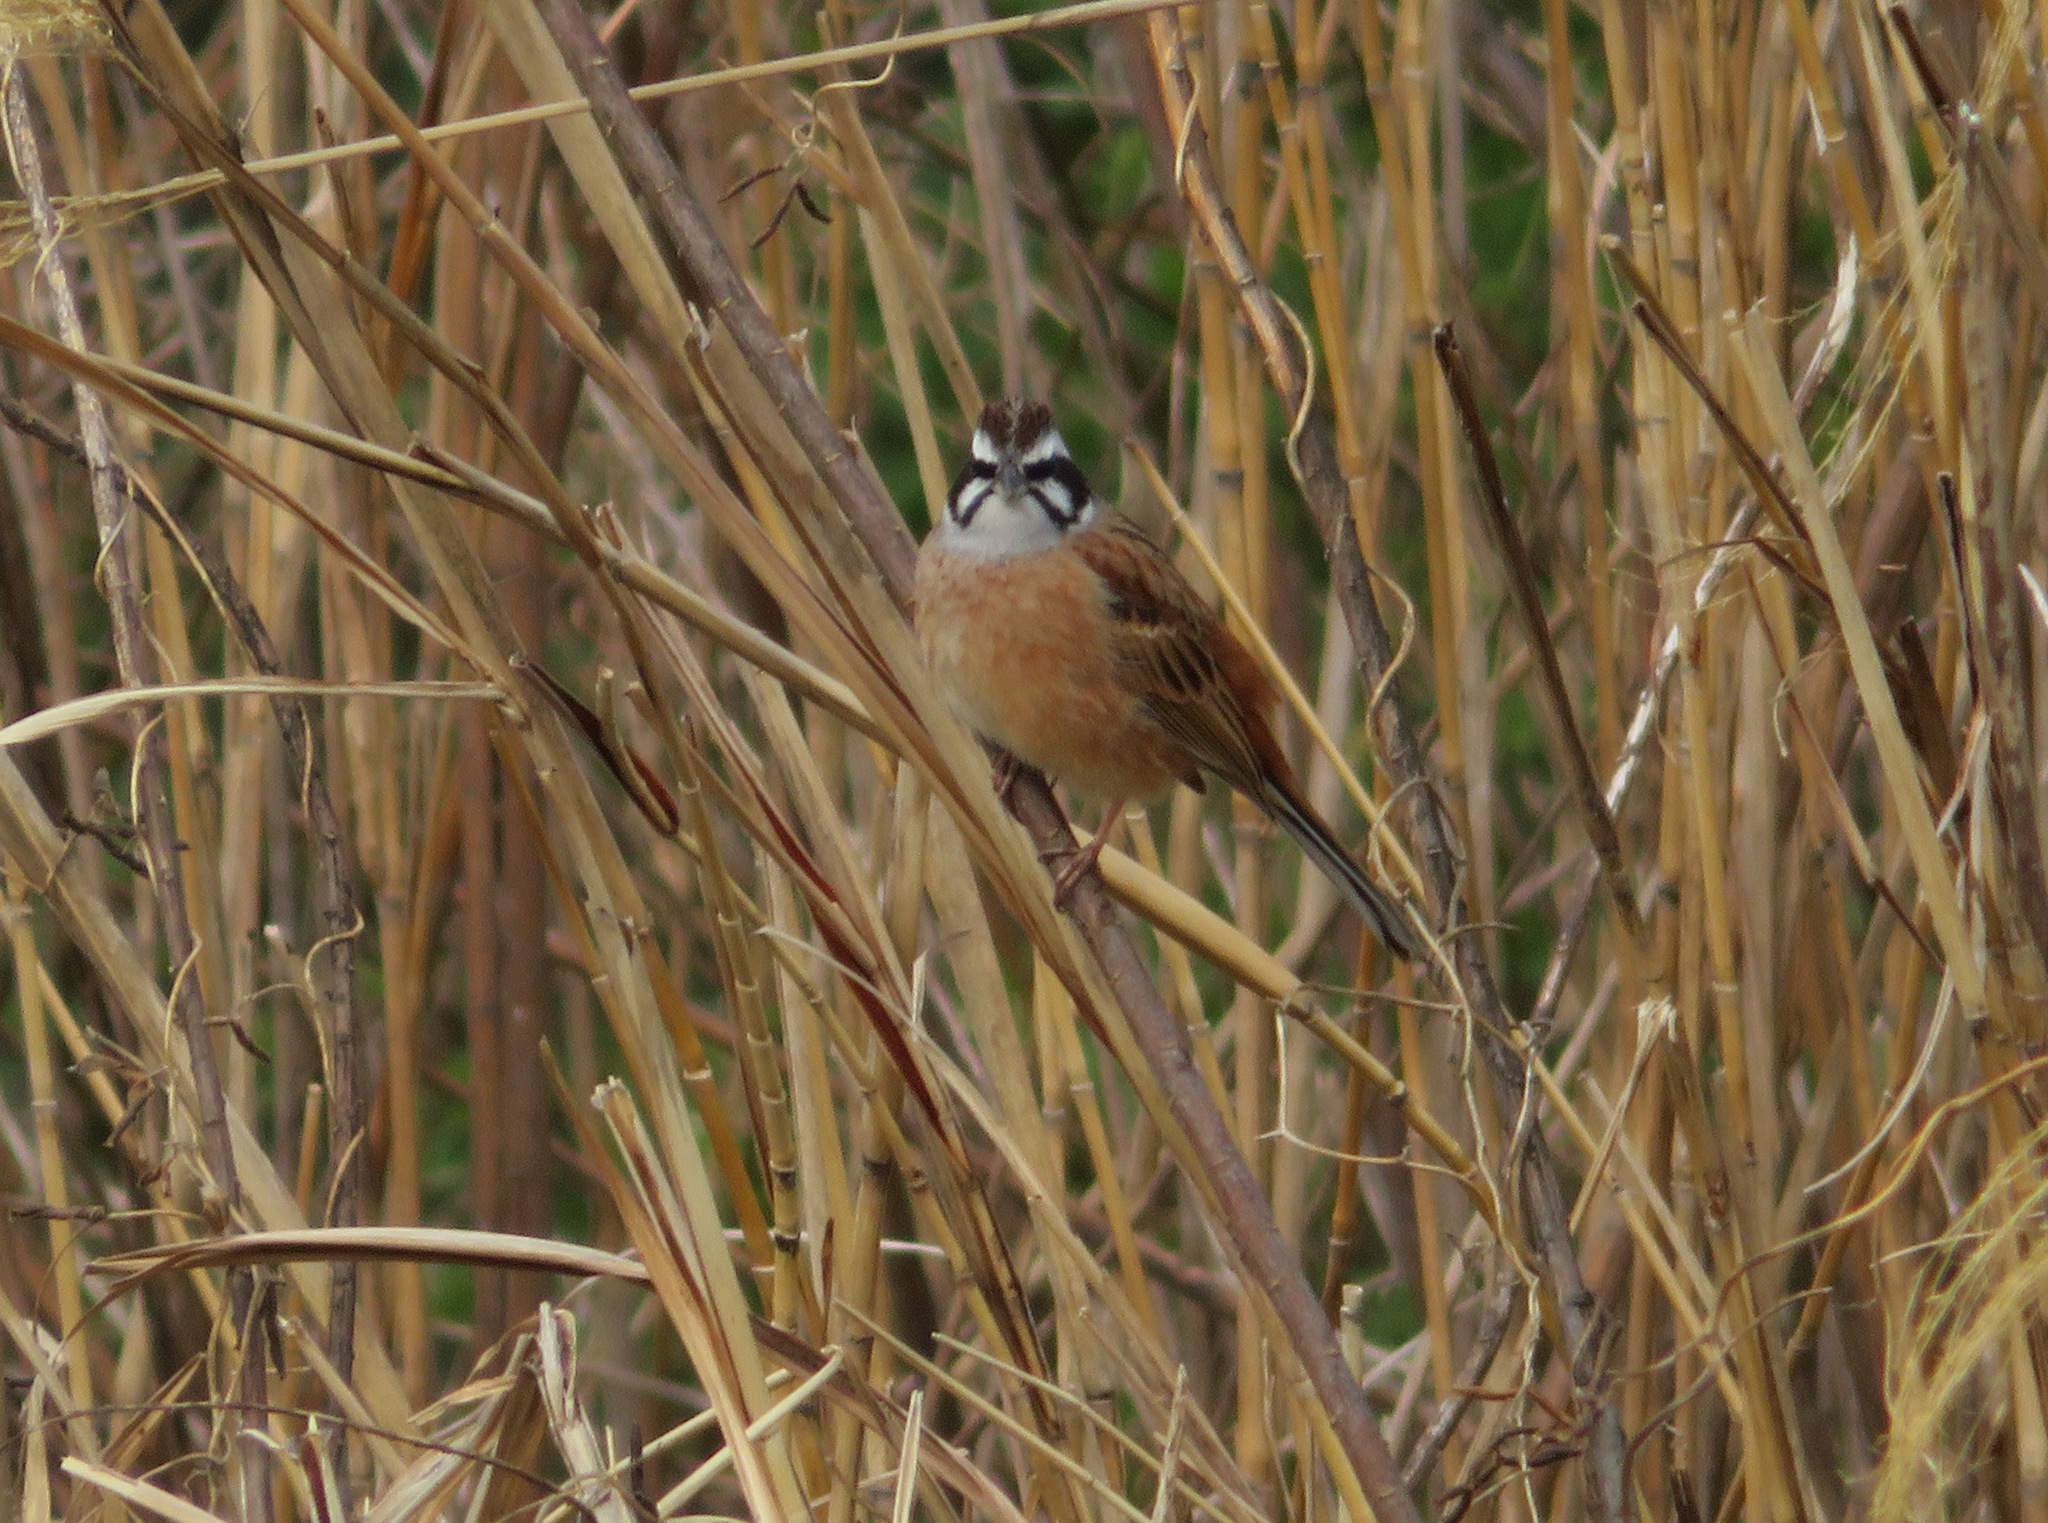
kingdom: Animalia
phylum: Chordata
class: Aves
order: Passeriformes
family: Emberizidae
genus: Emberiza
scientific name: Emberiza cioides
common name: Meadow bunting
